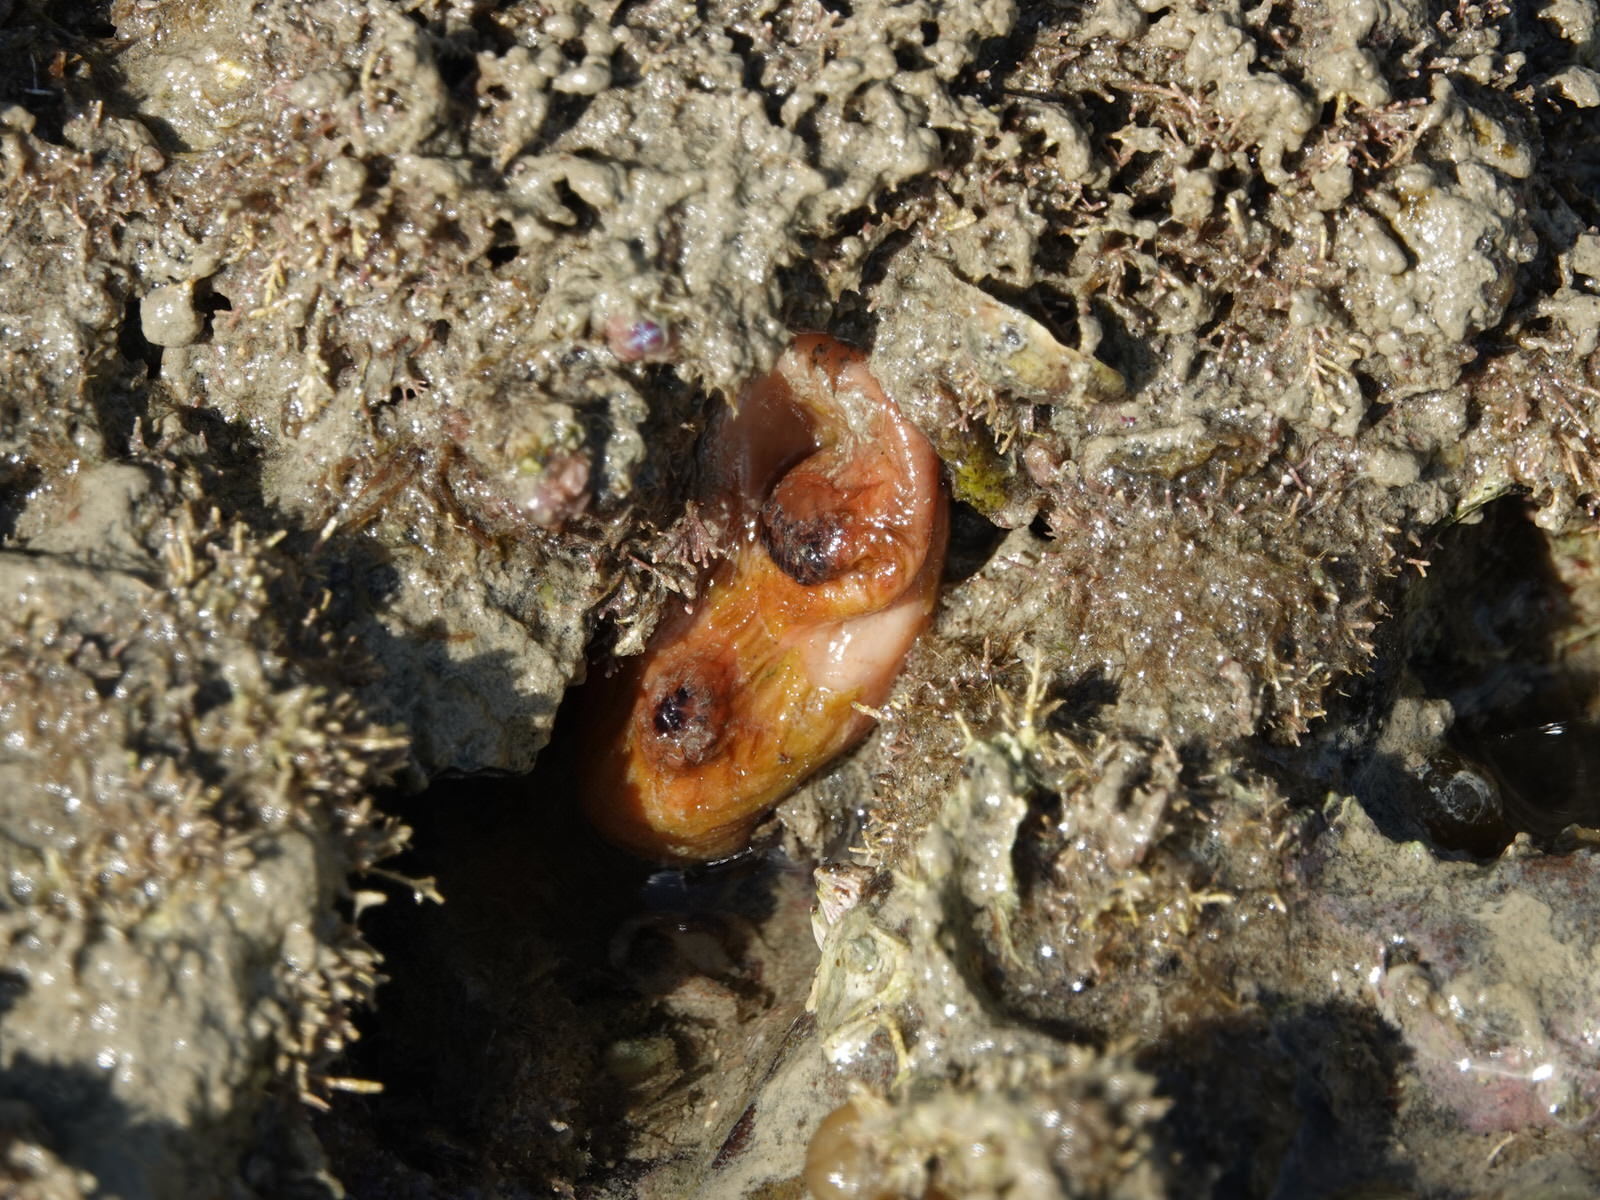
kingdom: Animalia
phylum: Chordata
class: Ascidiacea
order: Stolidobranchia
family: Styelidae
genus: Cnemidocarpa
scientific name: Cnemidocarpa bicornuta
